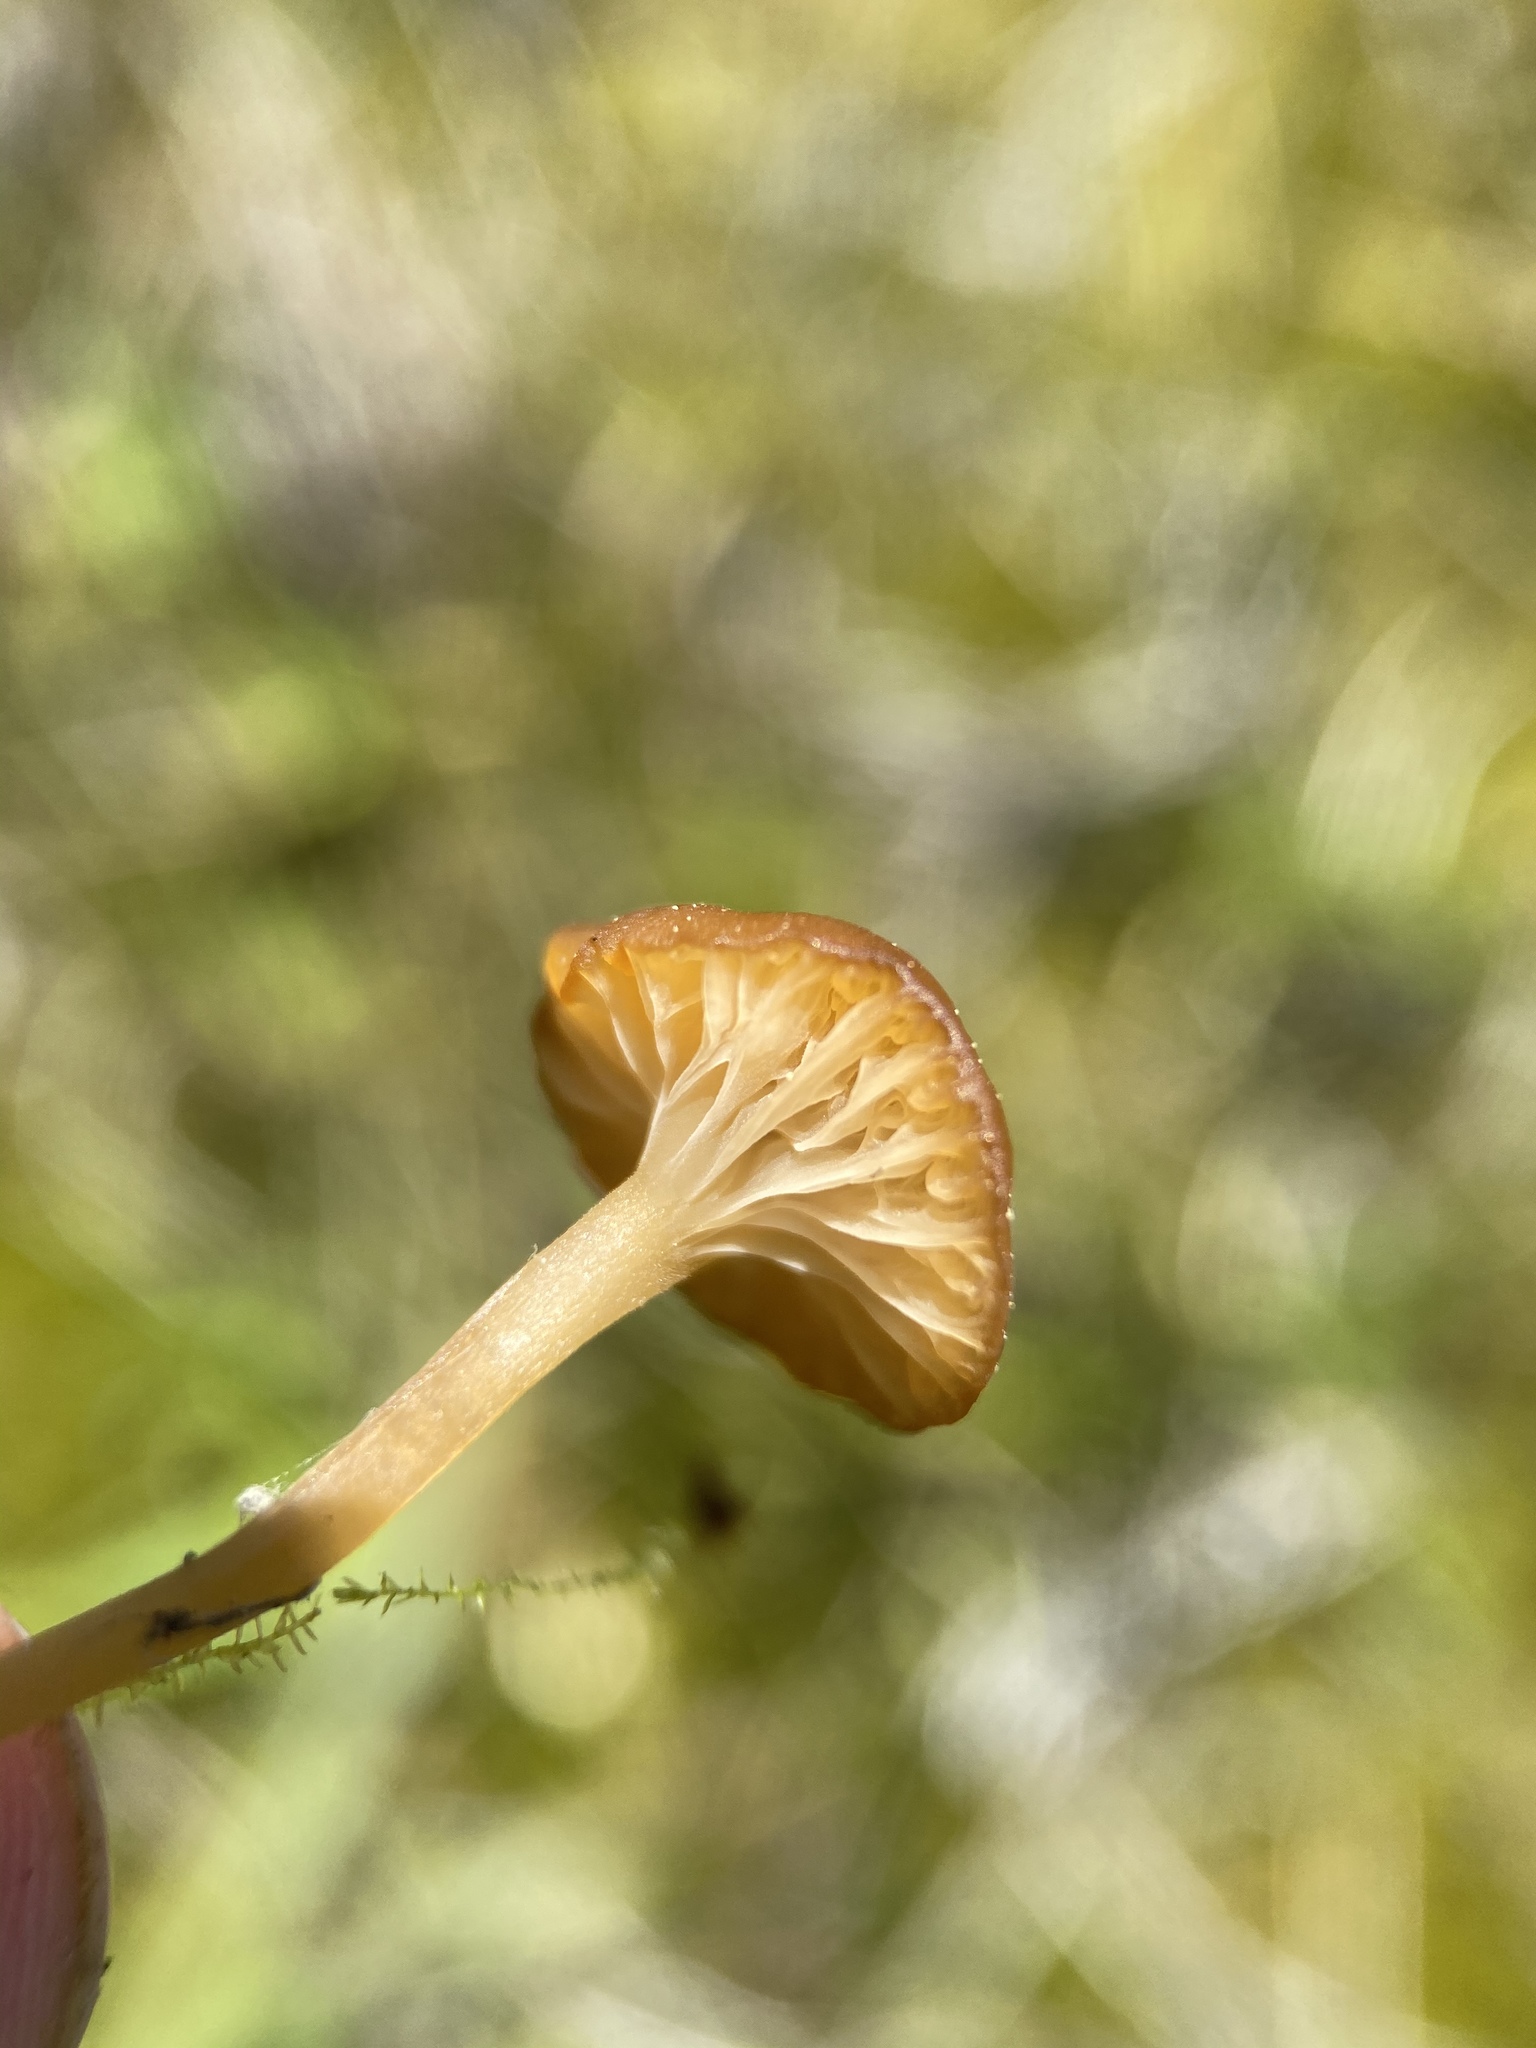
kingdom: Fungi
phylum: Basidiomycota
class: Agaricomycetes
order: Hymenochaetales
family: Rickenellaceae
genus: Rickenella
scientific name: Rickenella fibula
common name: Orange mosscap
